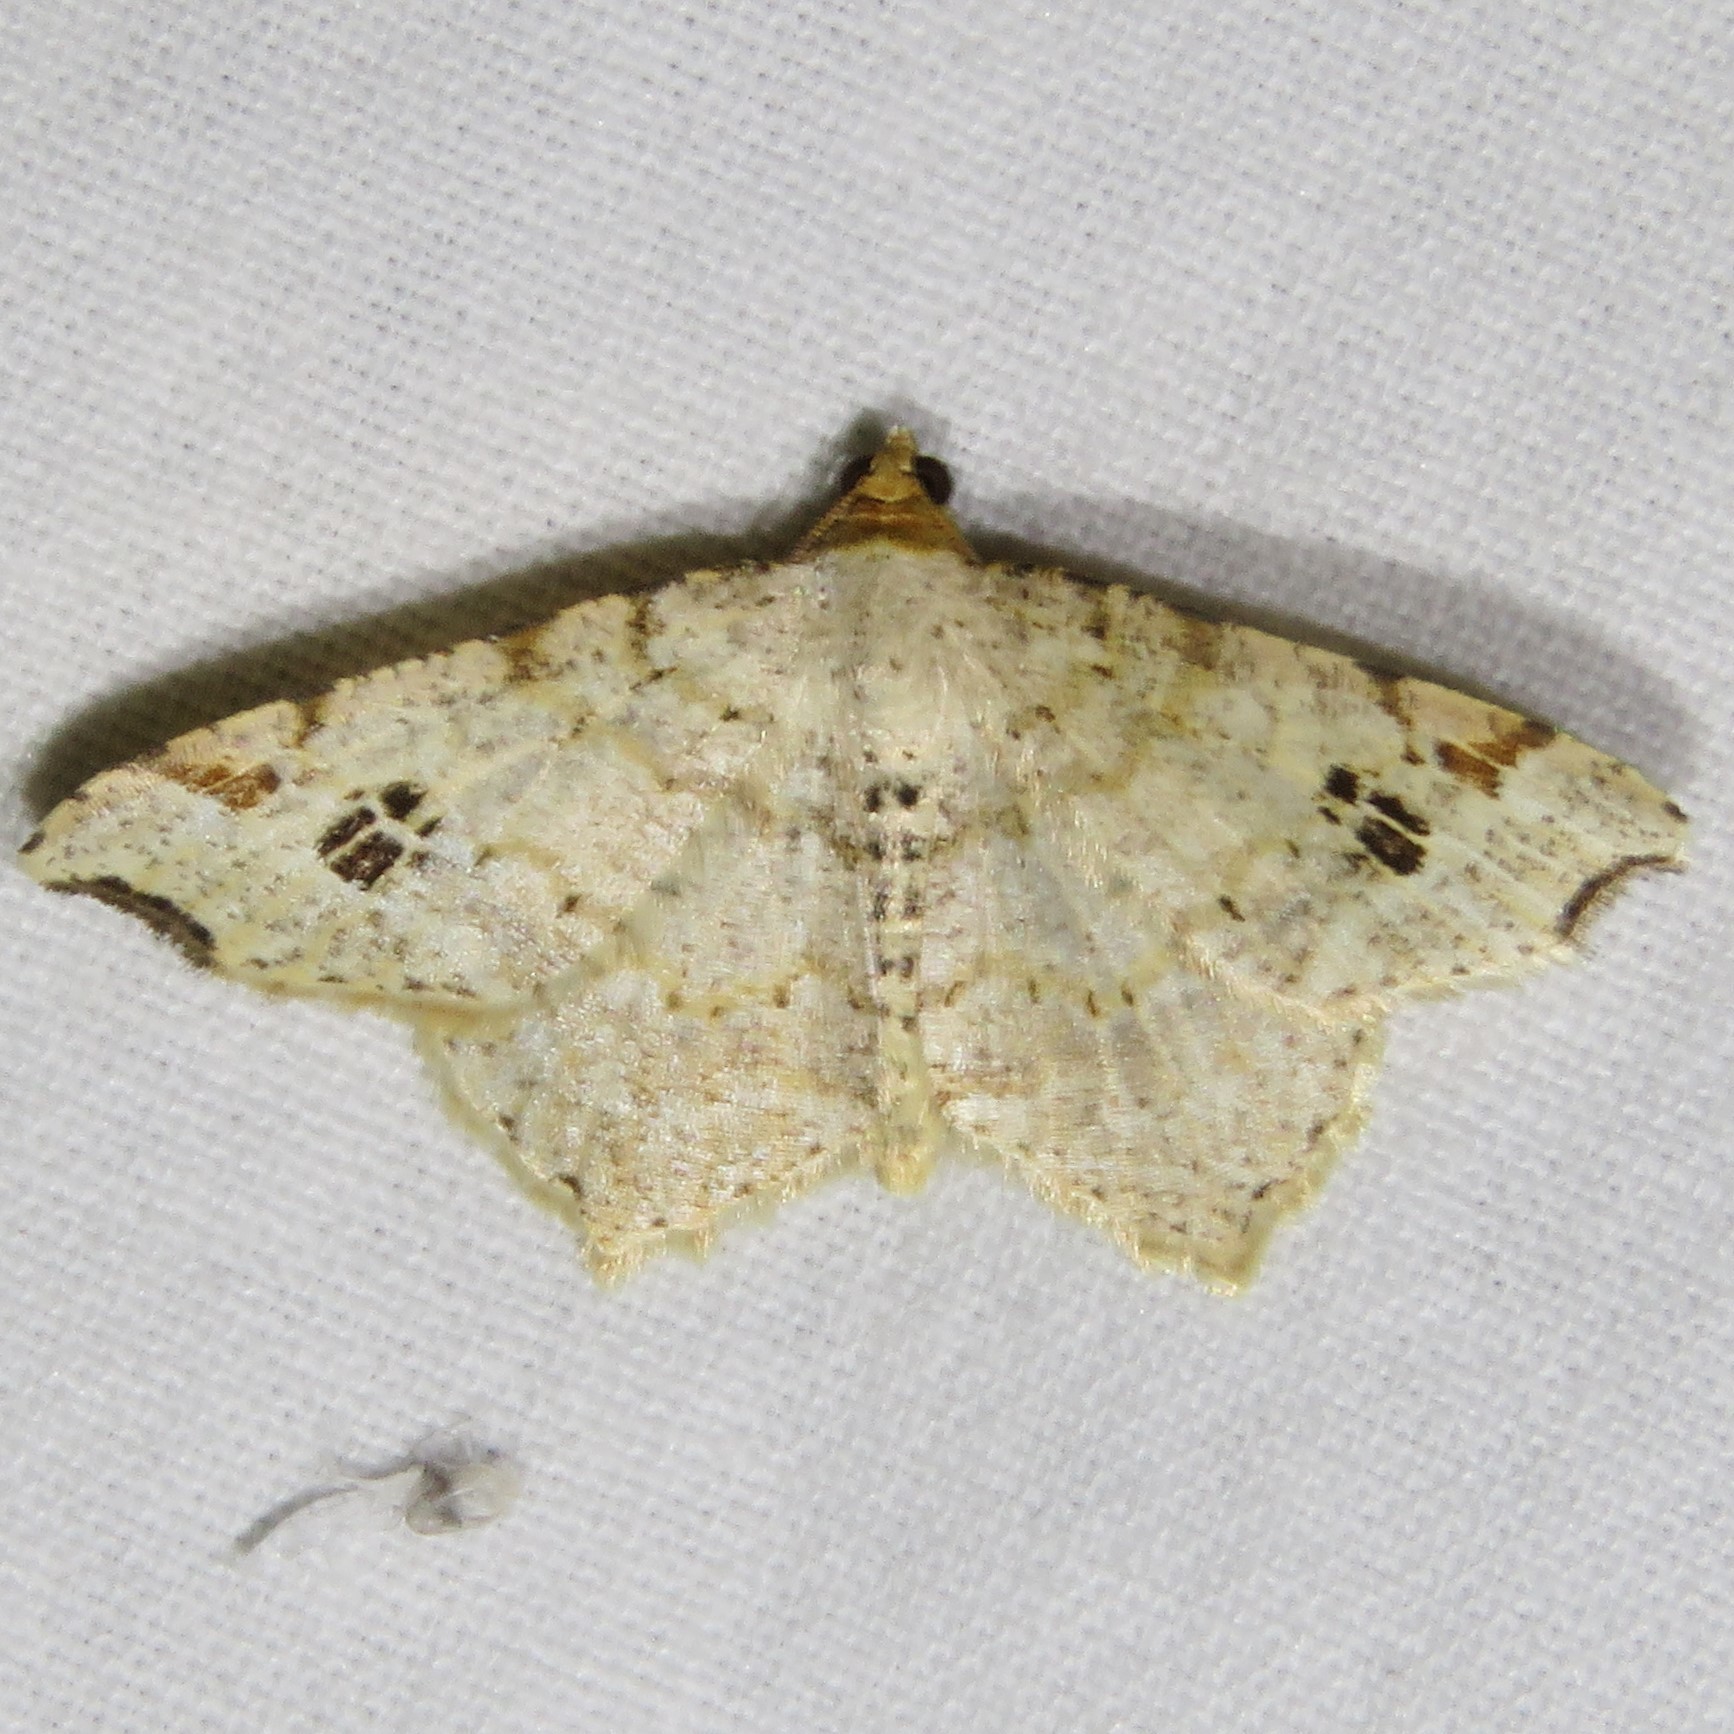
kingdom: Animalia
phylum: Arthropoda
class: Insecta
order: Lepidoptera
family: Geometridae
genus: Macaria
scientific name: Macaria aemulataria
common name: Common angle
